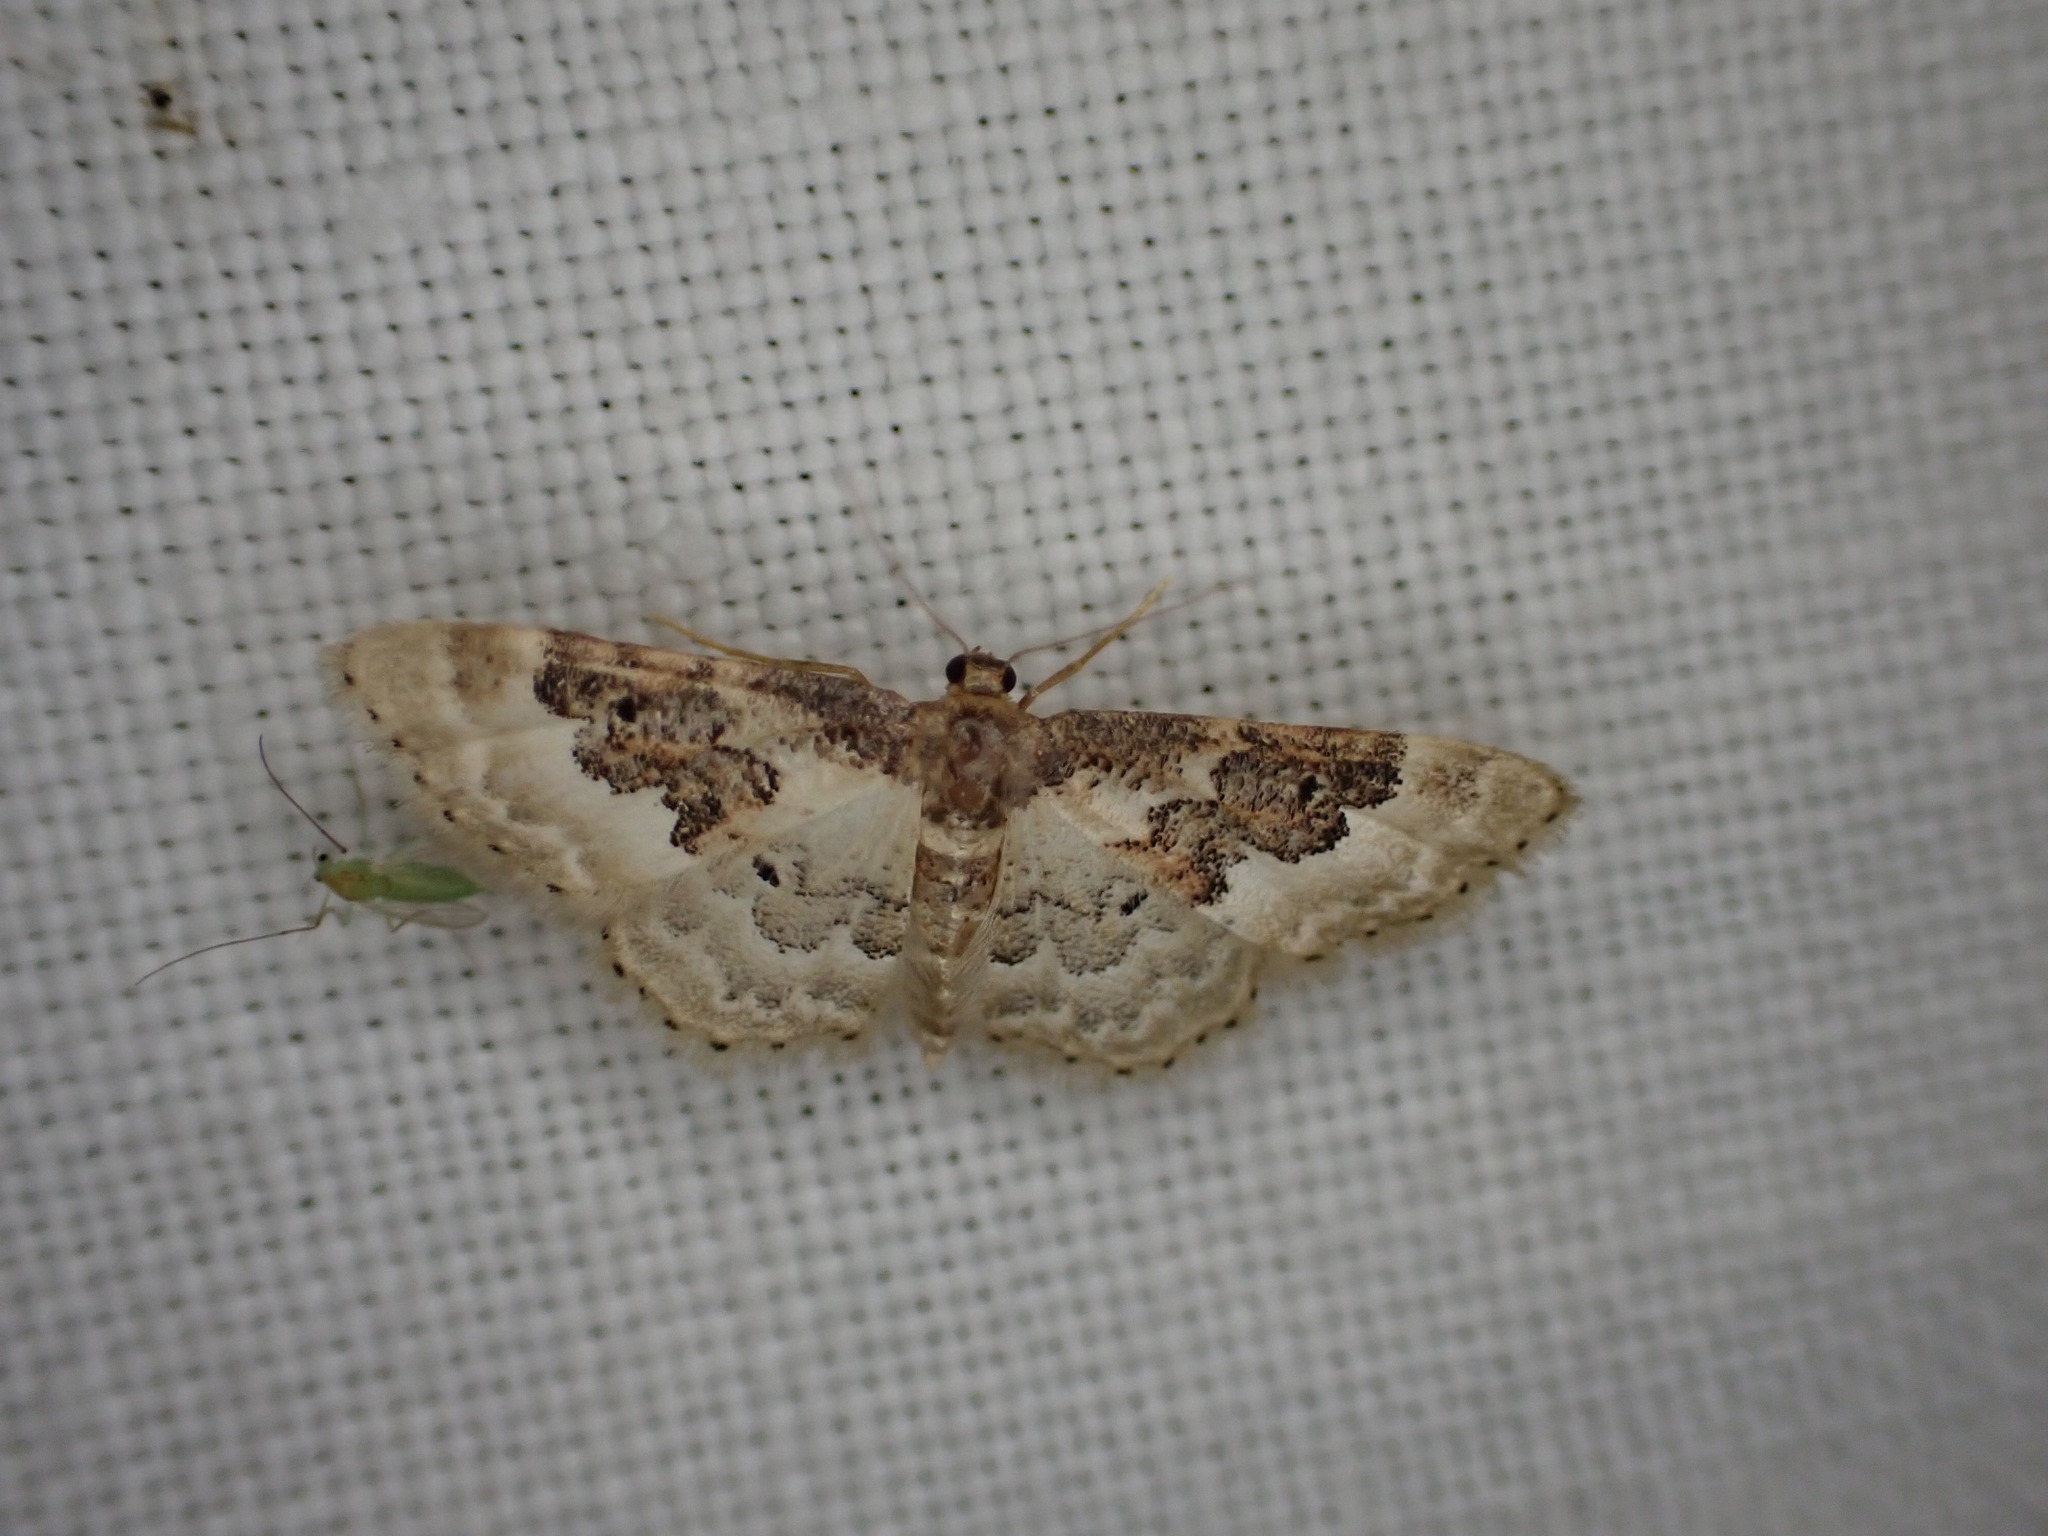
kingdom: Animalia
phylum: Arthropoda
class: Insecta
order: Lepidoptera
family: Geometridae
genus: Idaea
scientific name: Idaea rusticata
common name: Least carpet
